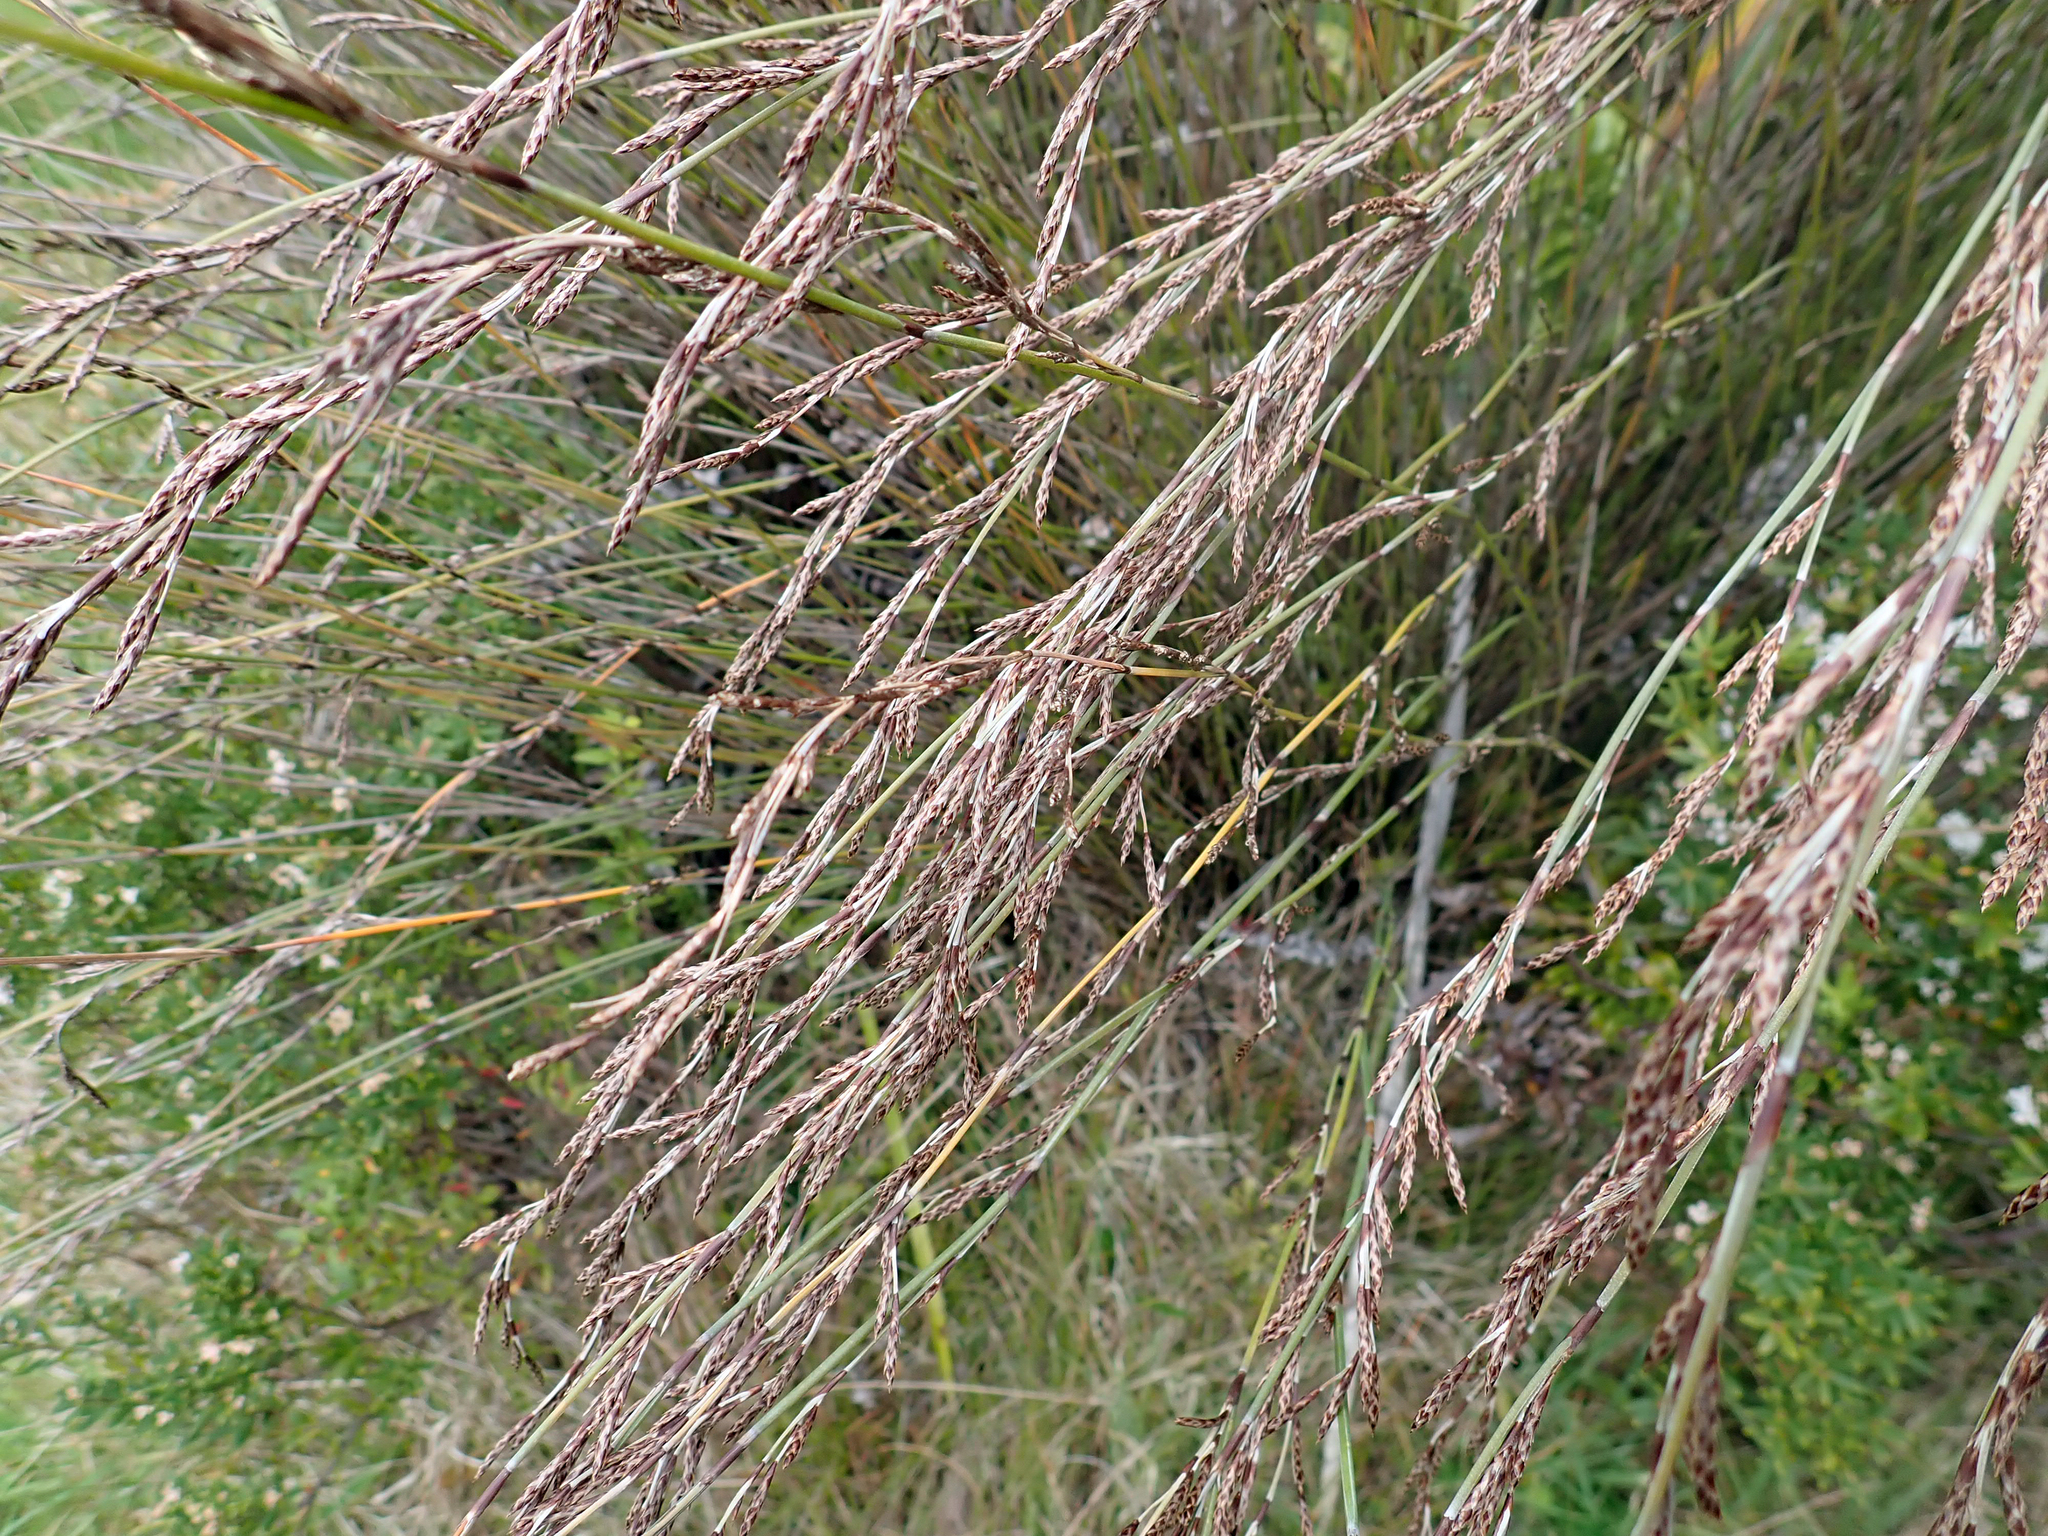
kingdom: Plantae
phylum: Tracheophyta
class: Liliopsida
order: Poales
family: Restionaceae
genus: Apodasmia
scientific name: Apodasmia similis
